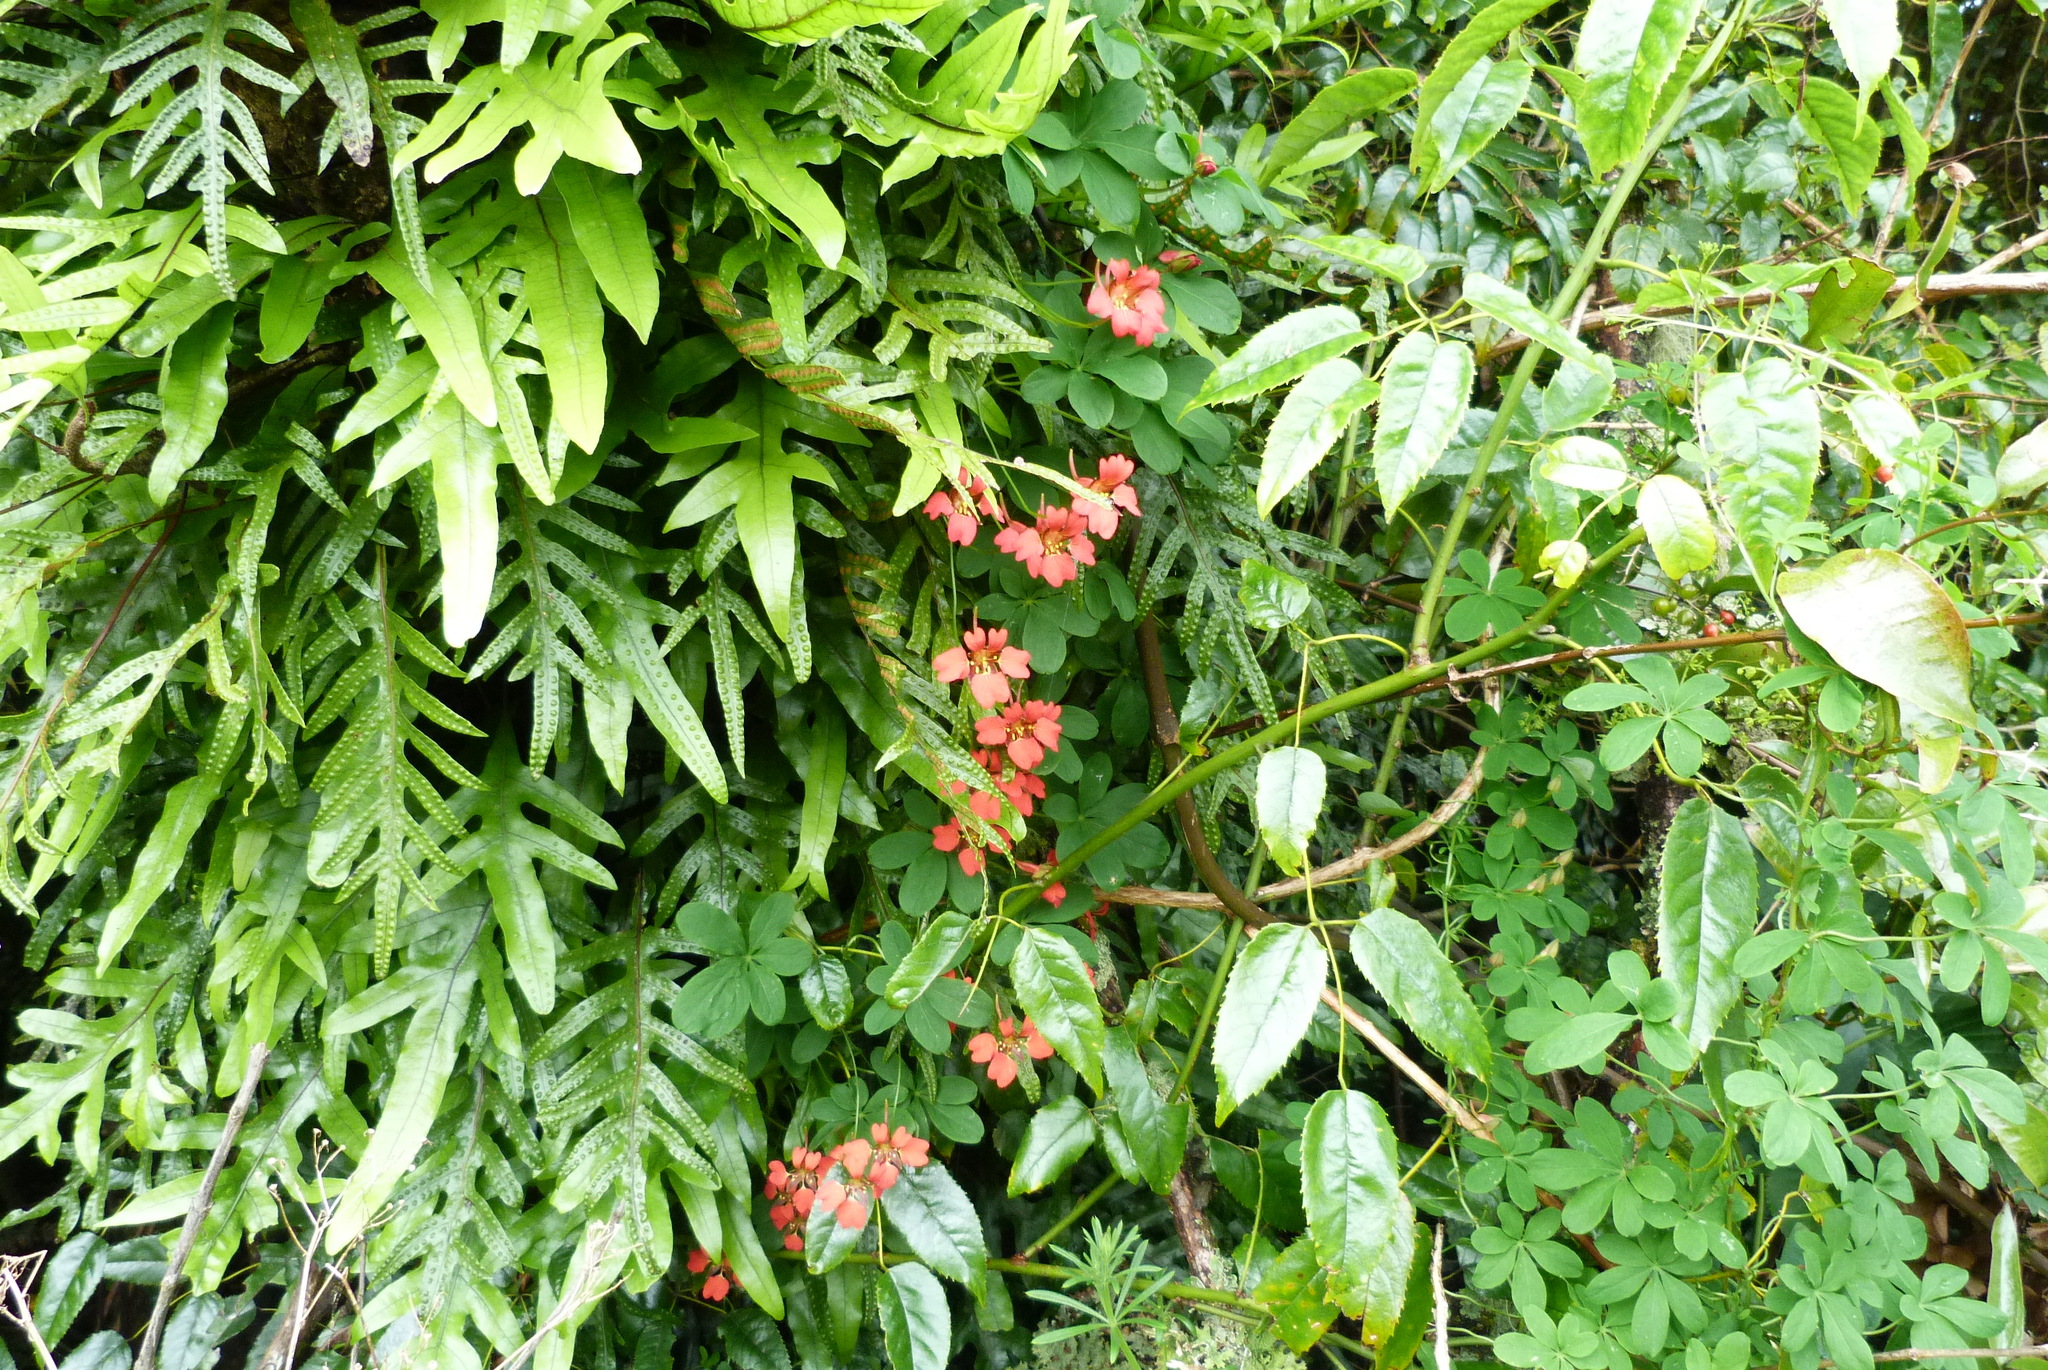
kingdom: Plantae
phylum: Tracheophyta
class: Magnoliopsida
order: Brassicales
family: Tropaeolaceae
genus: Tropaeolum
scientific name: Tropaeolum speciosum
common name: Flame nasturtium
